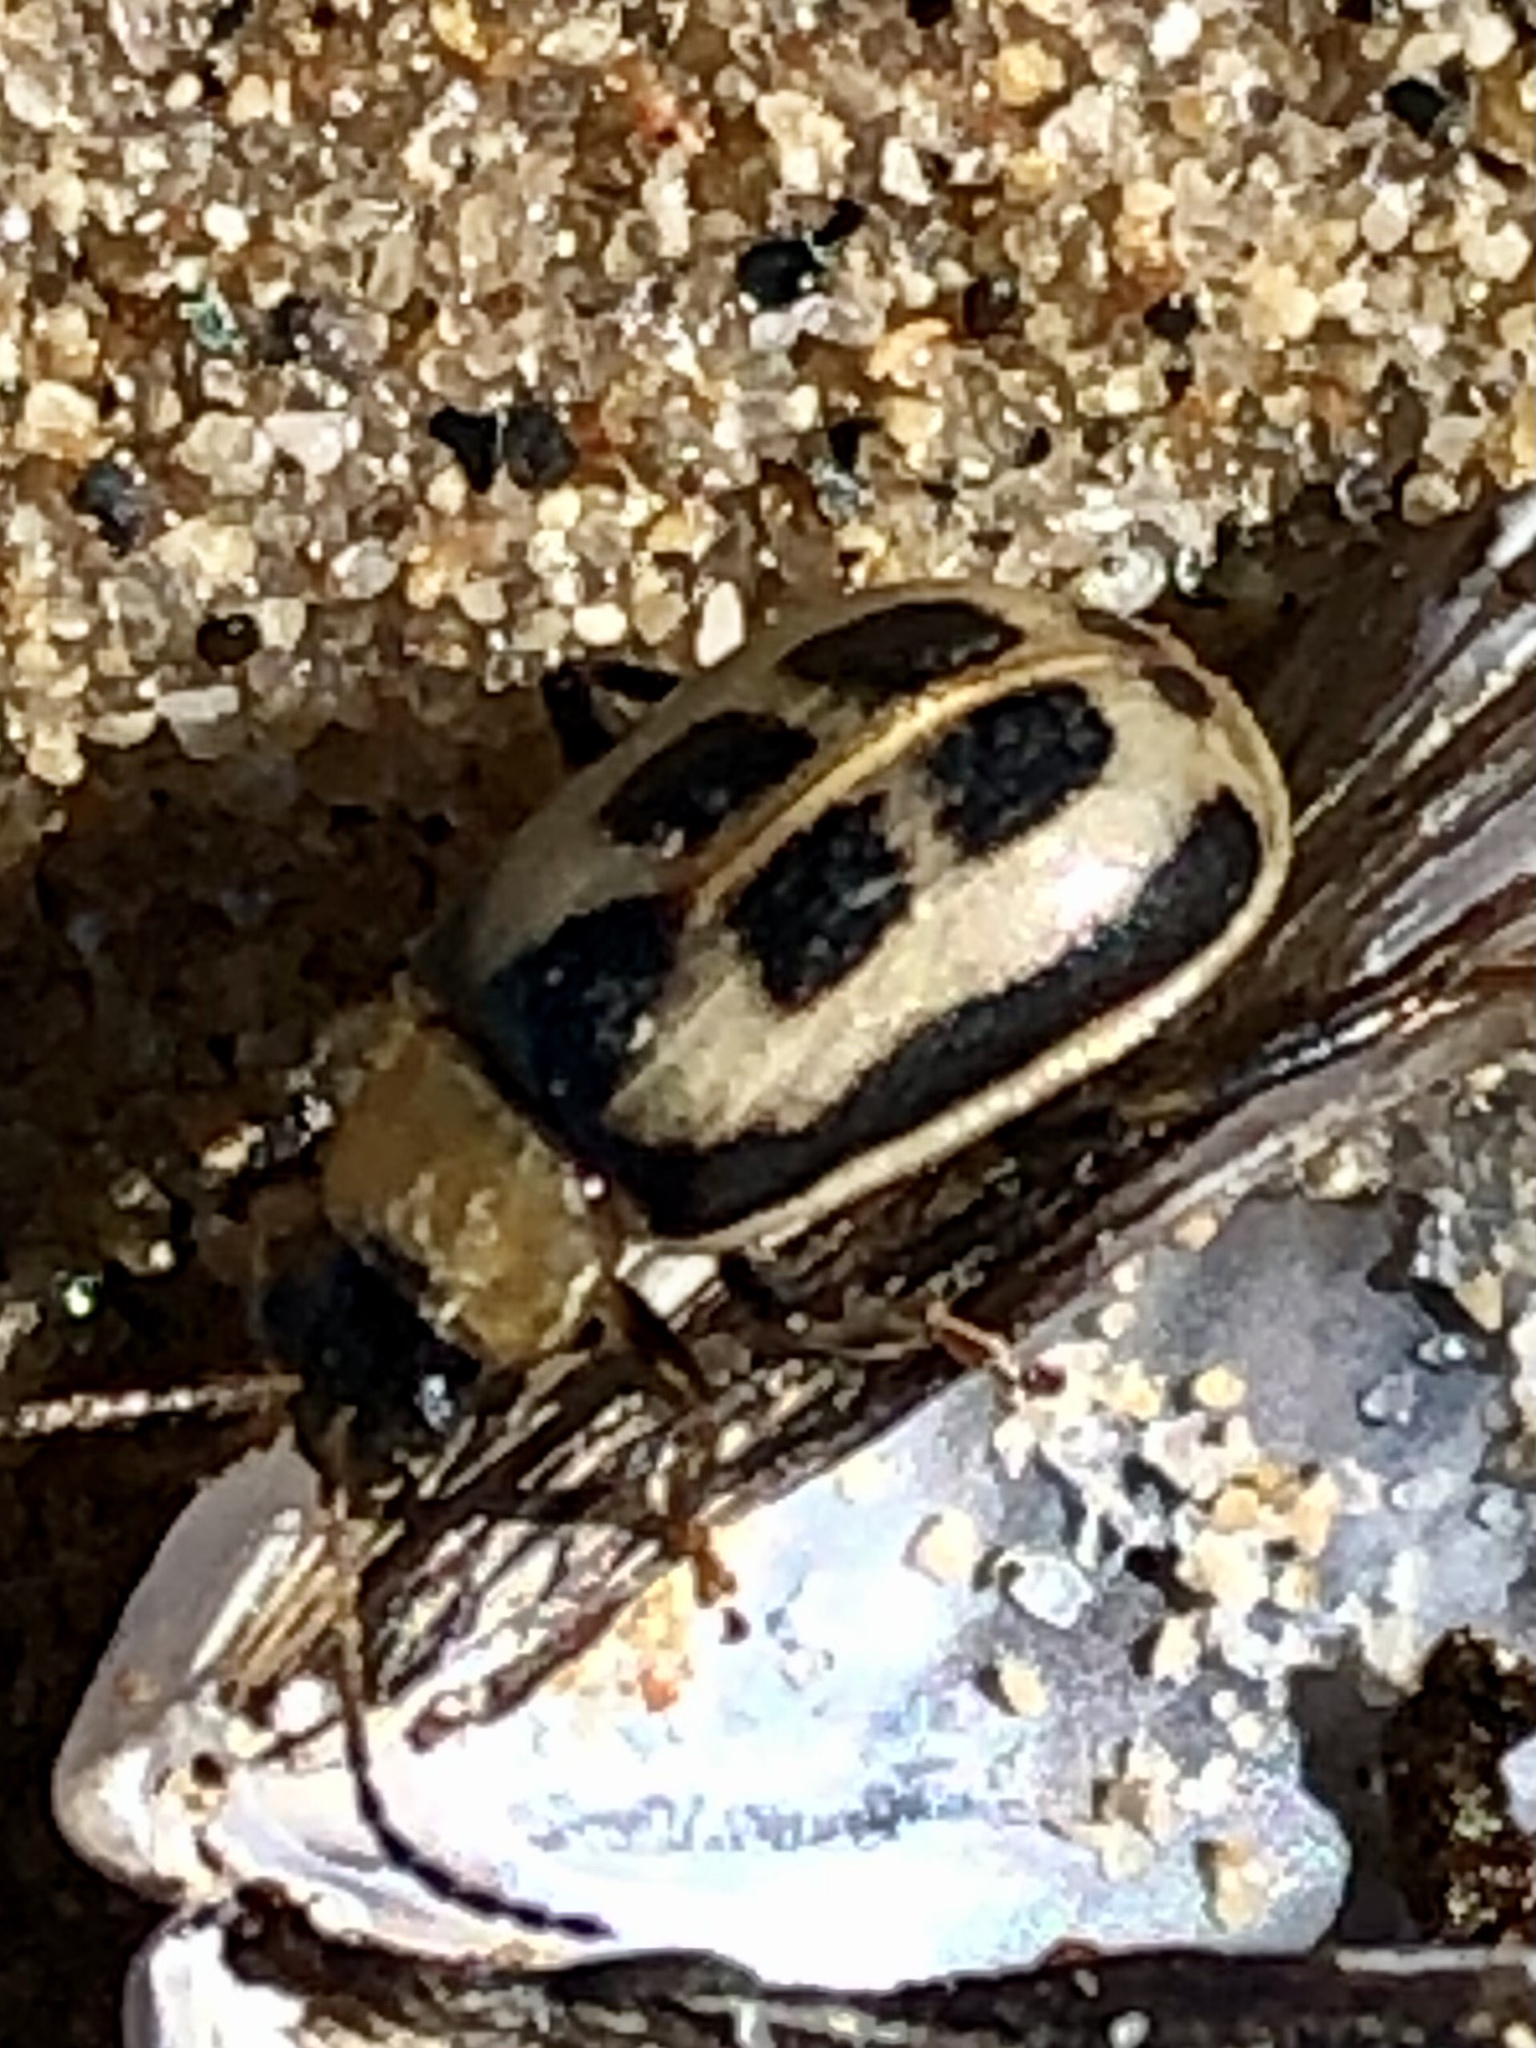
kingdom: Animalia
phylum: Arthropoda
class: Insecta
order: Coleoptera
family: Chrysomelidae
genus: Cerotoma
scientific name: Cerotoma trifurcata
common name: Bean leaf beetle
